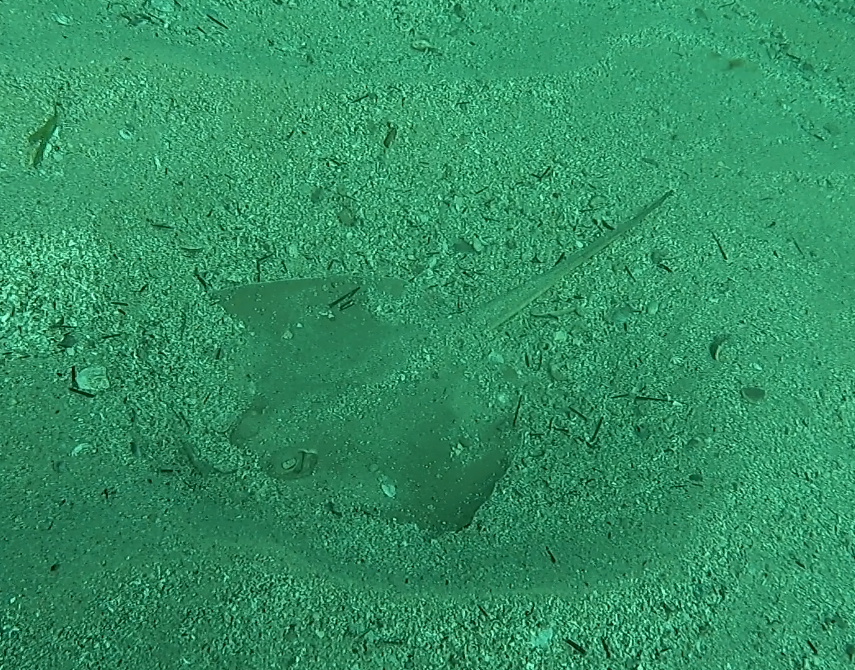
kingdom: Animalia
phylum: Chordata
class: Elasmobranchii
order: Myliobatiformes
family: Urolophidae
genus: Trygonoptera
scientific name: Trygonoptera testacea
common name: Common stingaree
